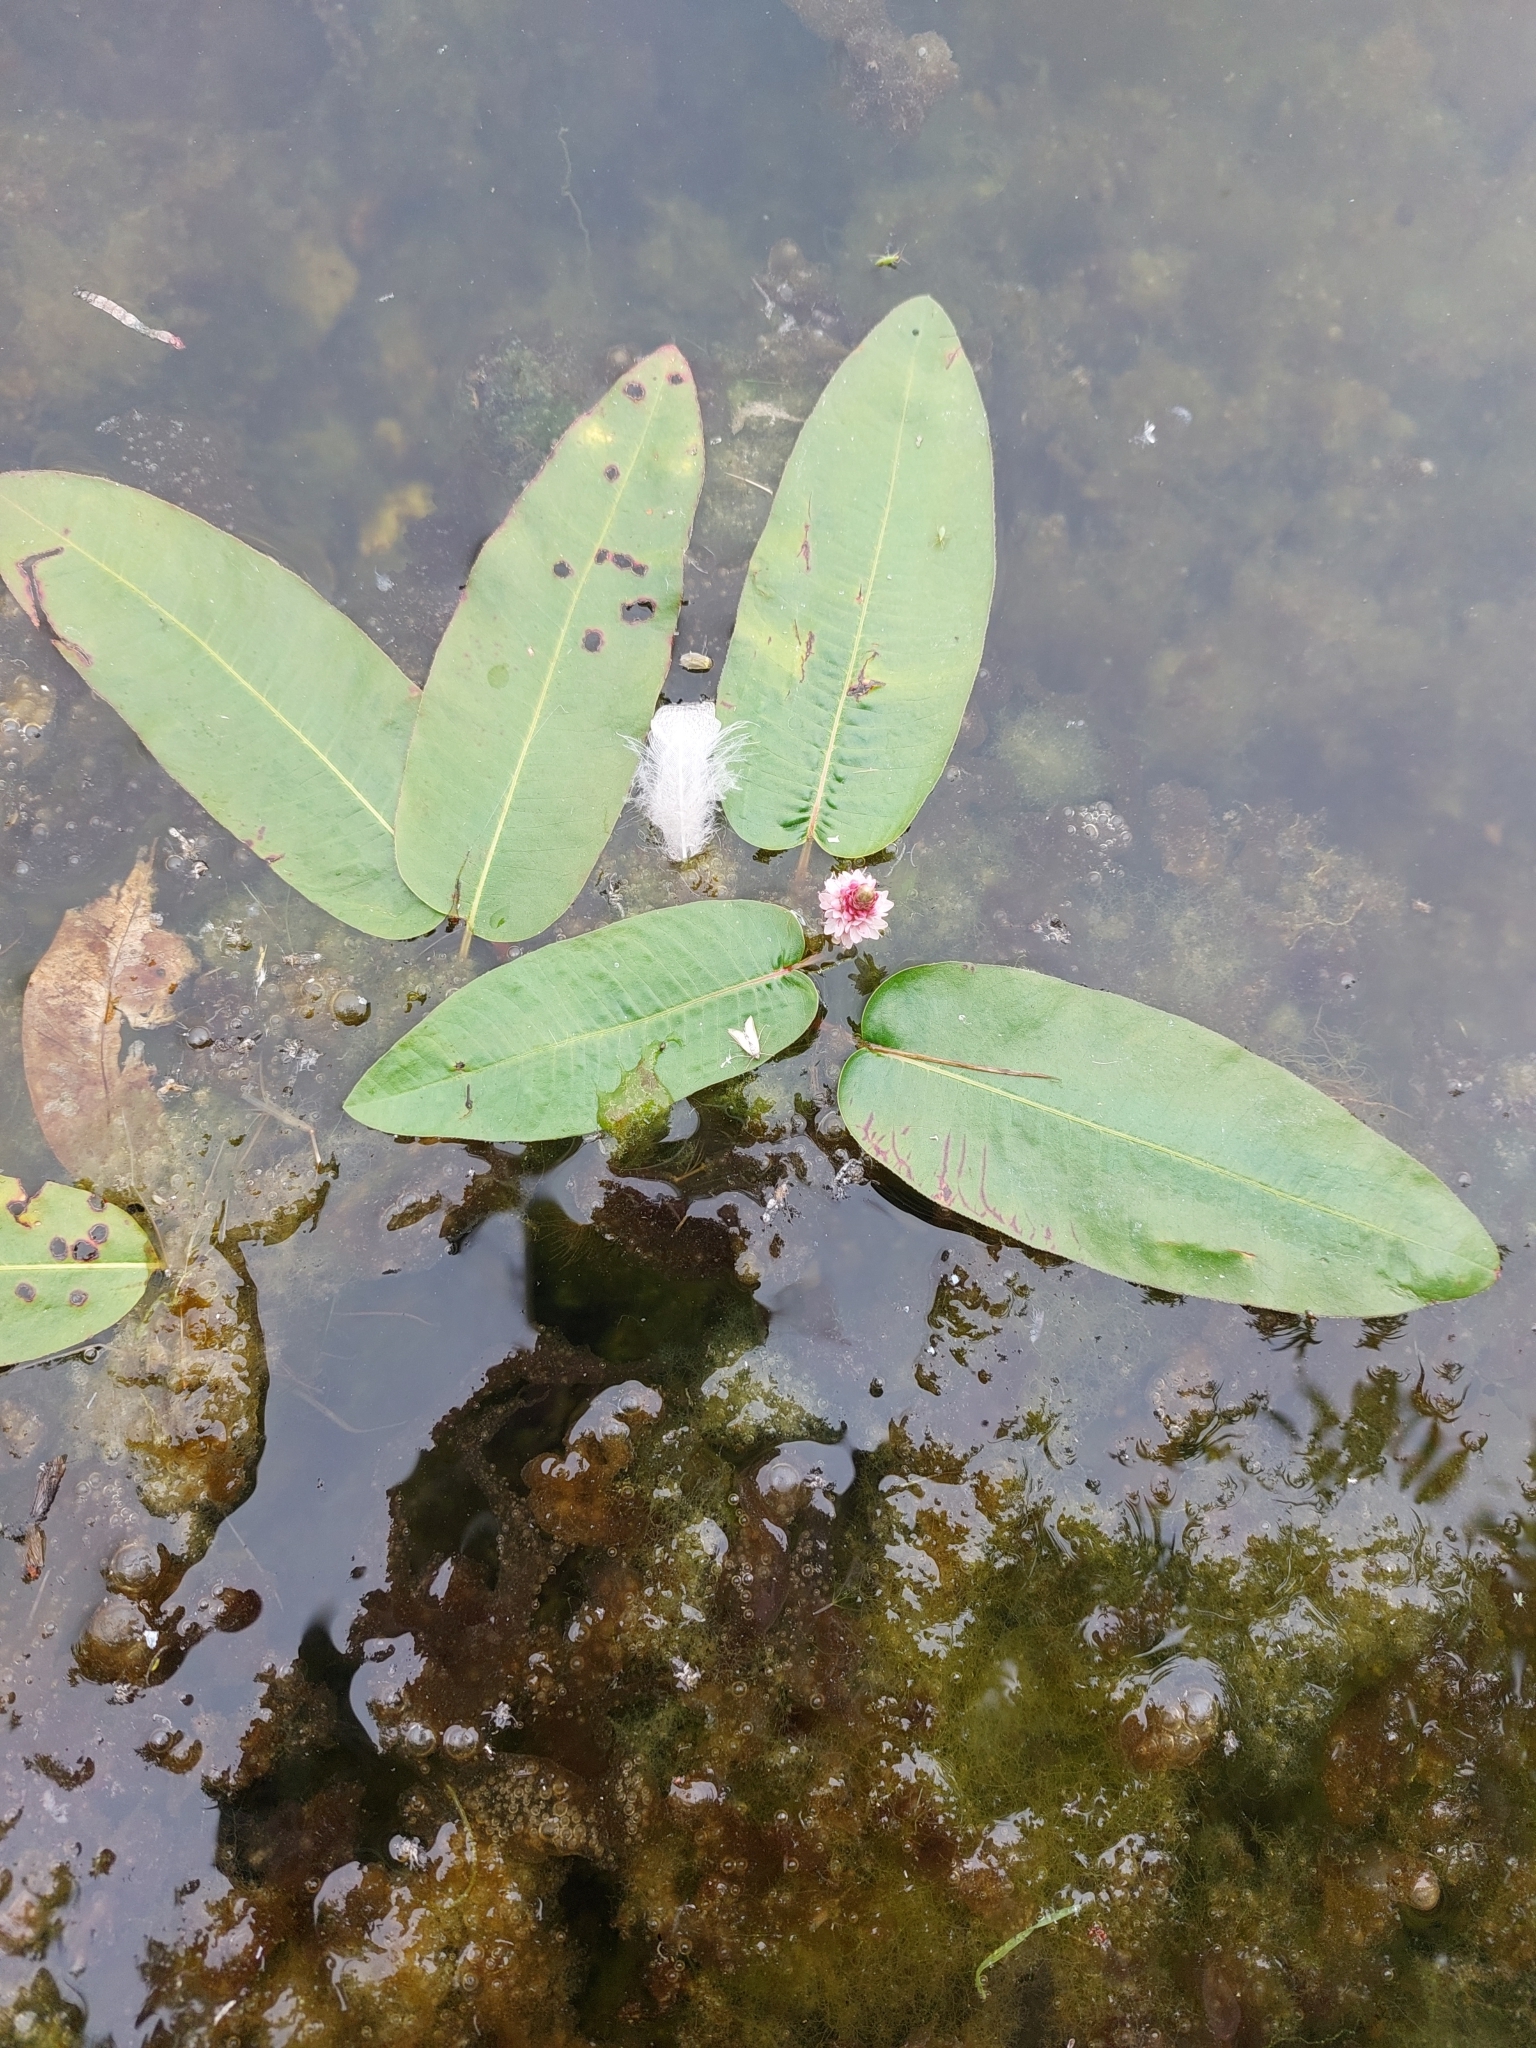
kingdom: Plantae
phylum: Tracheophyta
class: Magnoliopsida
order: Caryophyllales
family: Polygonaceae
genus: Persicaria
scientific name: Persicaria amphibia
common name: Amphibious bistort
